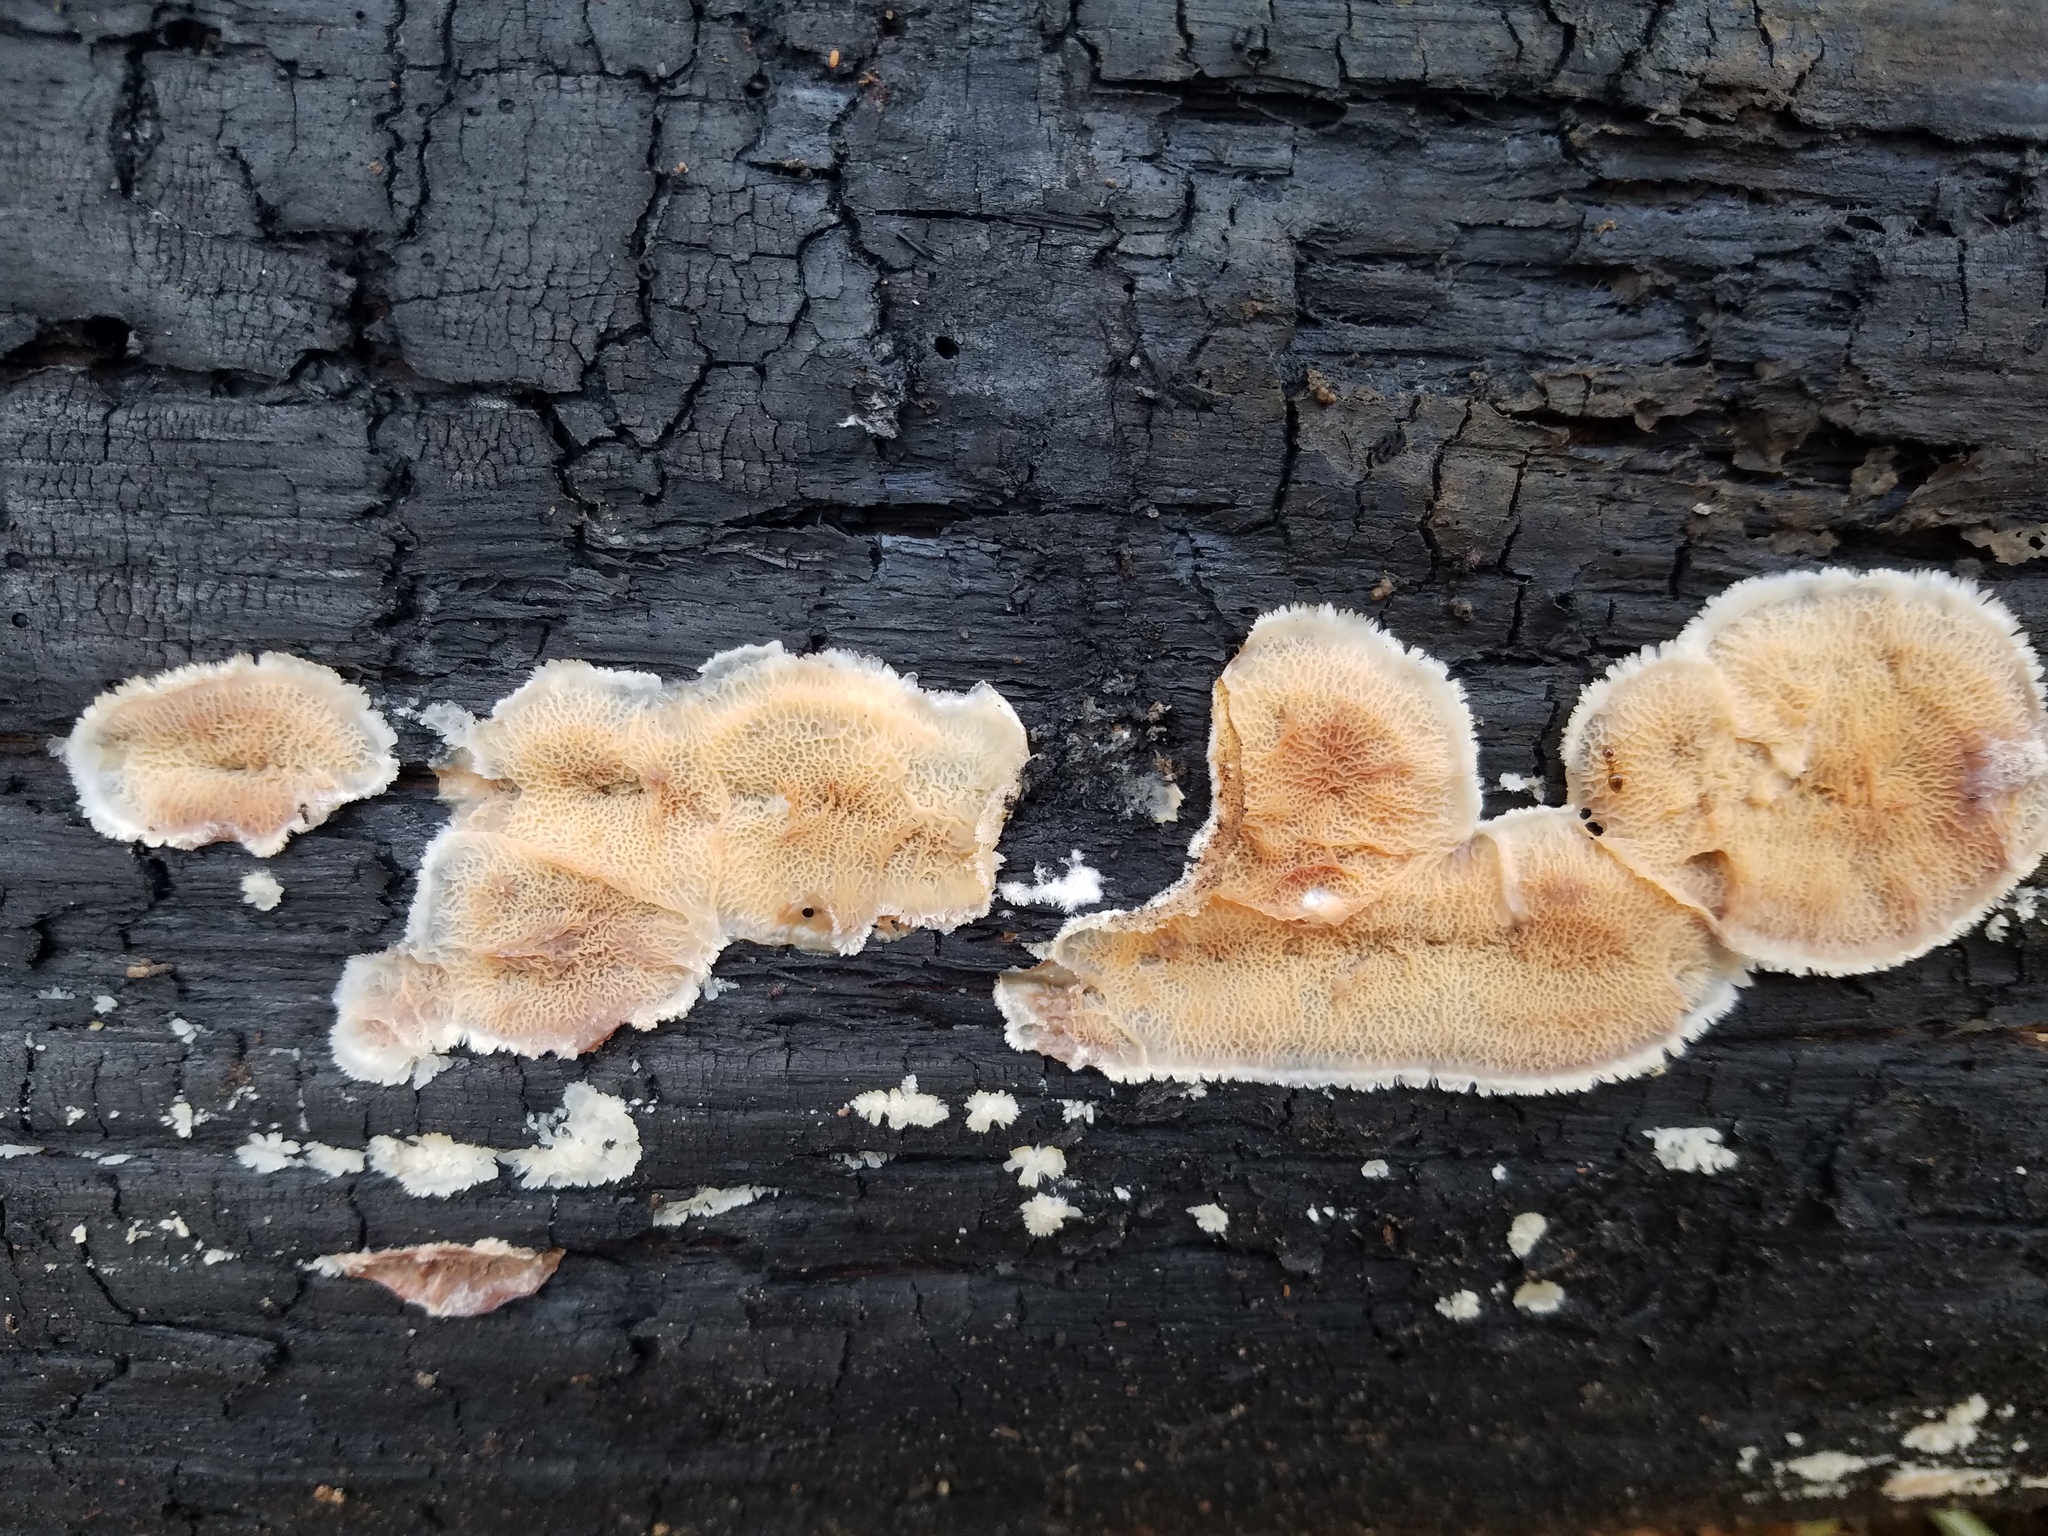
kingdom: Fungi
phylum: Basidiomycota
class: Agaricomycetes
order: Polyporales
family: Meruliaceae
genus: Phlebia
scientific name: Phlebia tremellosa
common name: Jelly rot
